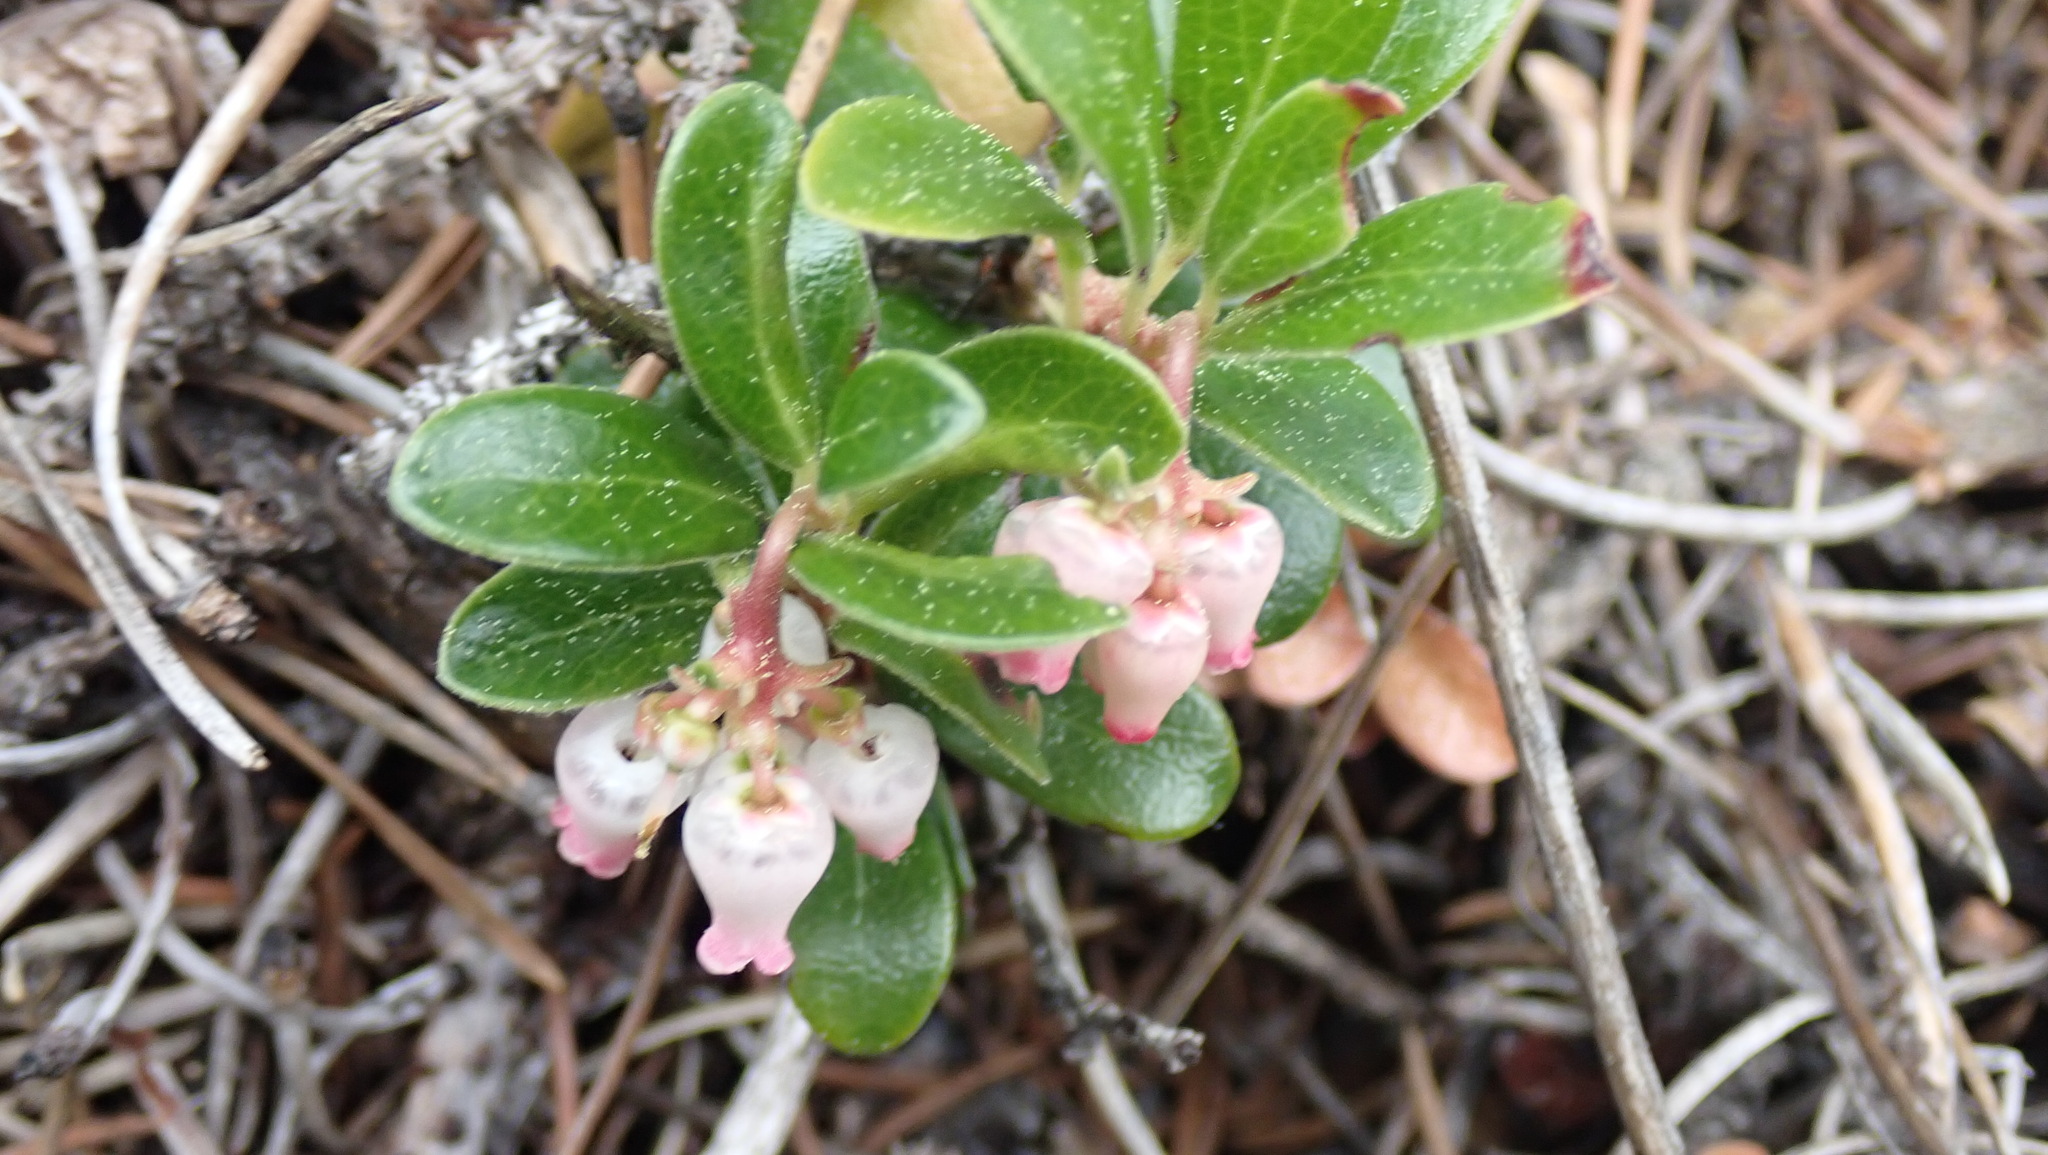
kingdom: Plantae
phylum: Tracheophyta
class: Magnoliopsida
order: Ericales
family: Ericaceae
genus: Arctostaphylos
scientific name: Arctostaphylos uva-ursi
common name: Bearberry
